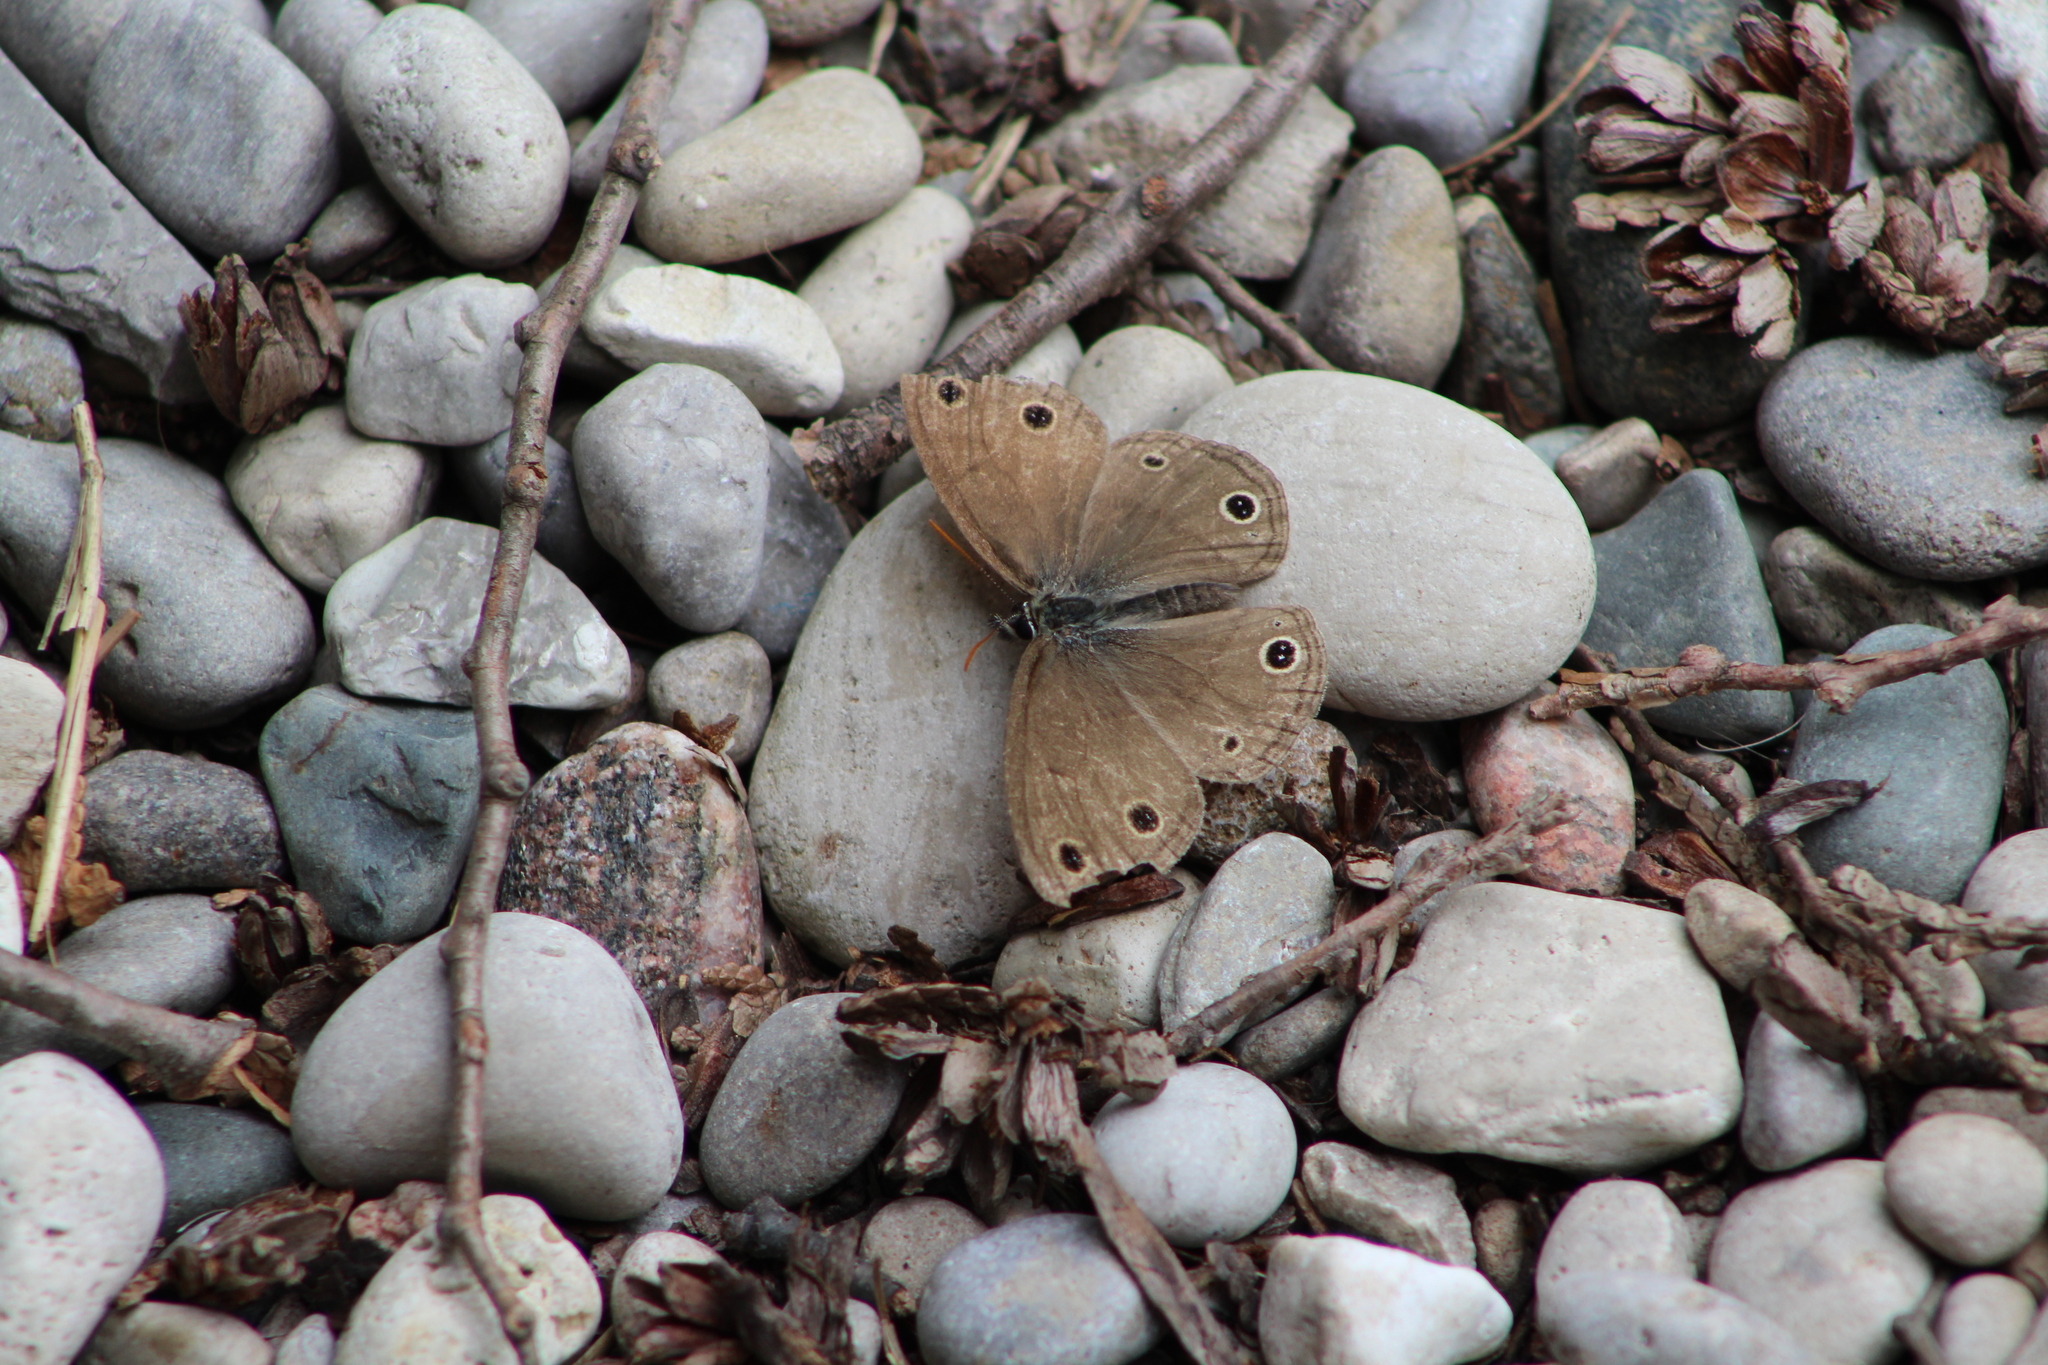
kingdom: Animalia
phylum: Arthropoda
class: Insecta
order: Lepidoptera
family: Nymphalidae
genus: Euptychia
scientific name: Euptychia cymela
